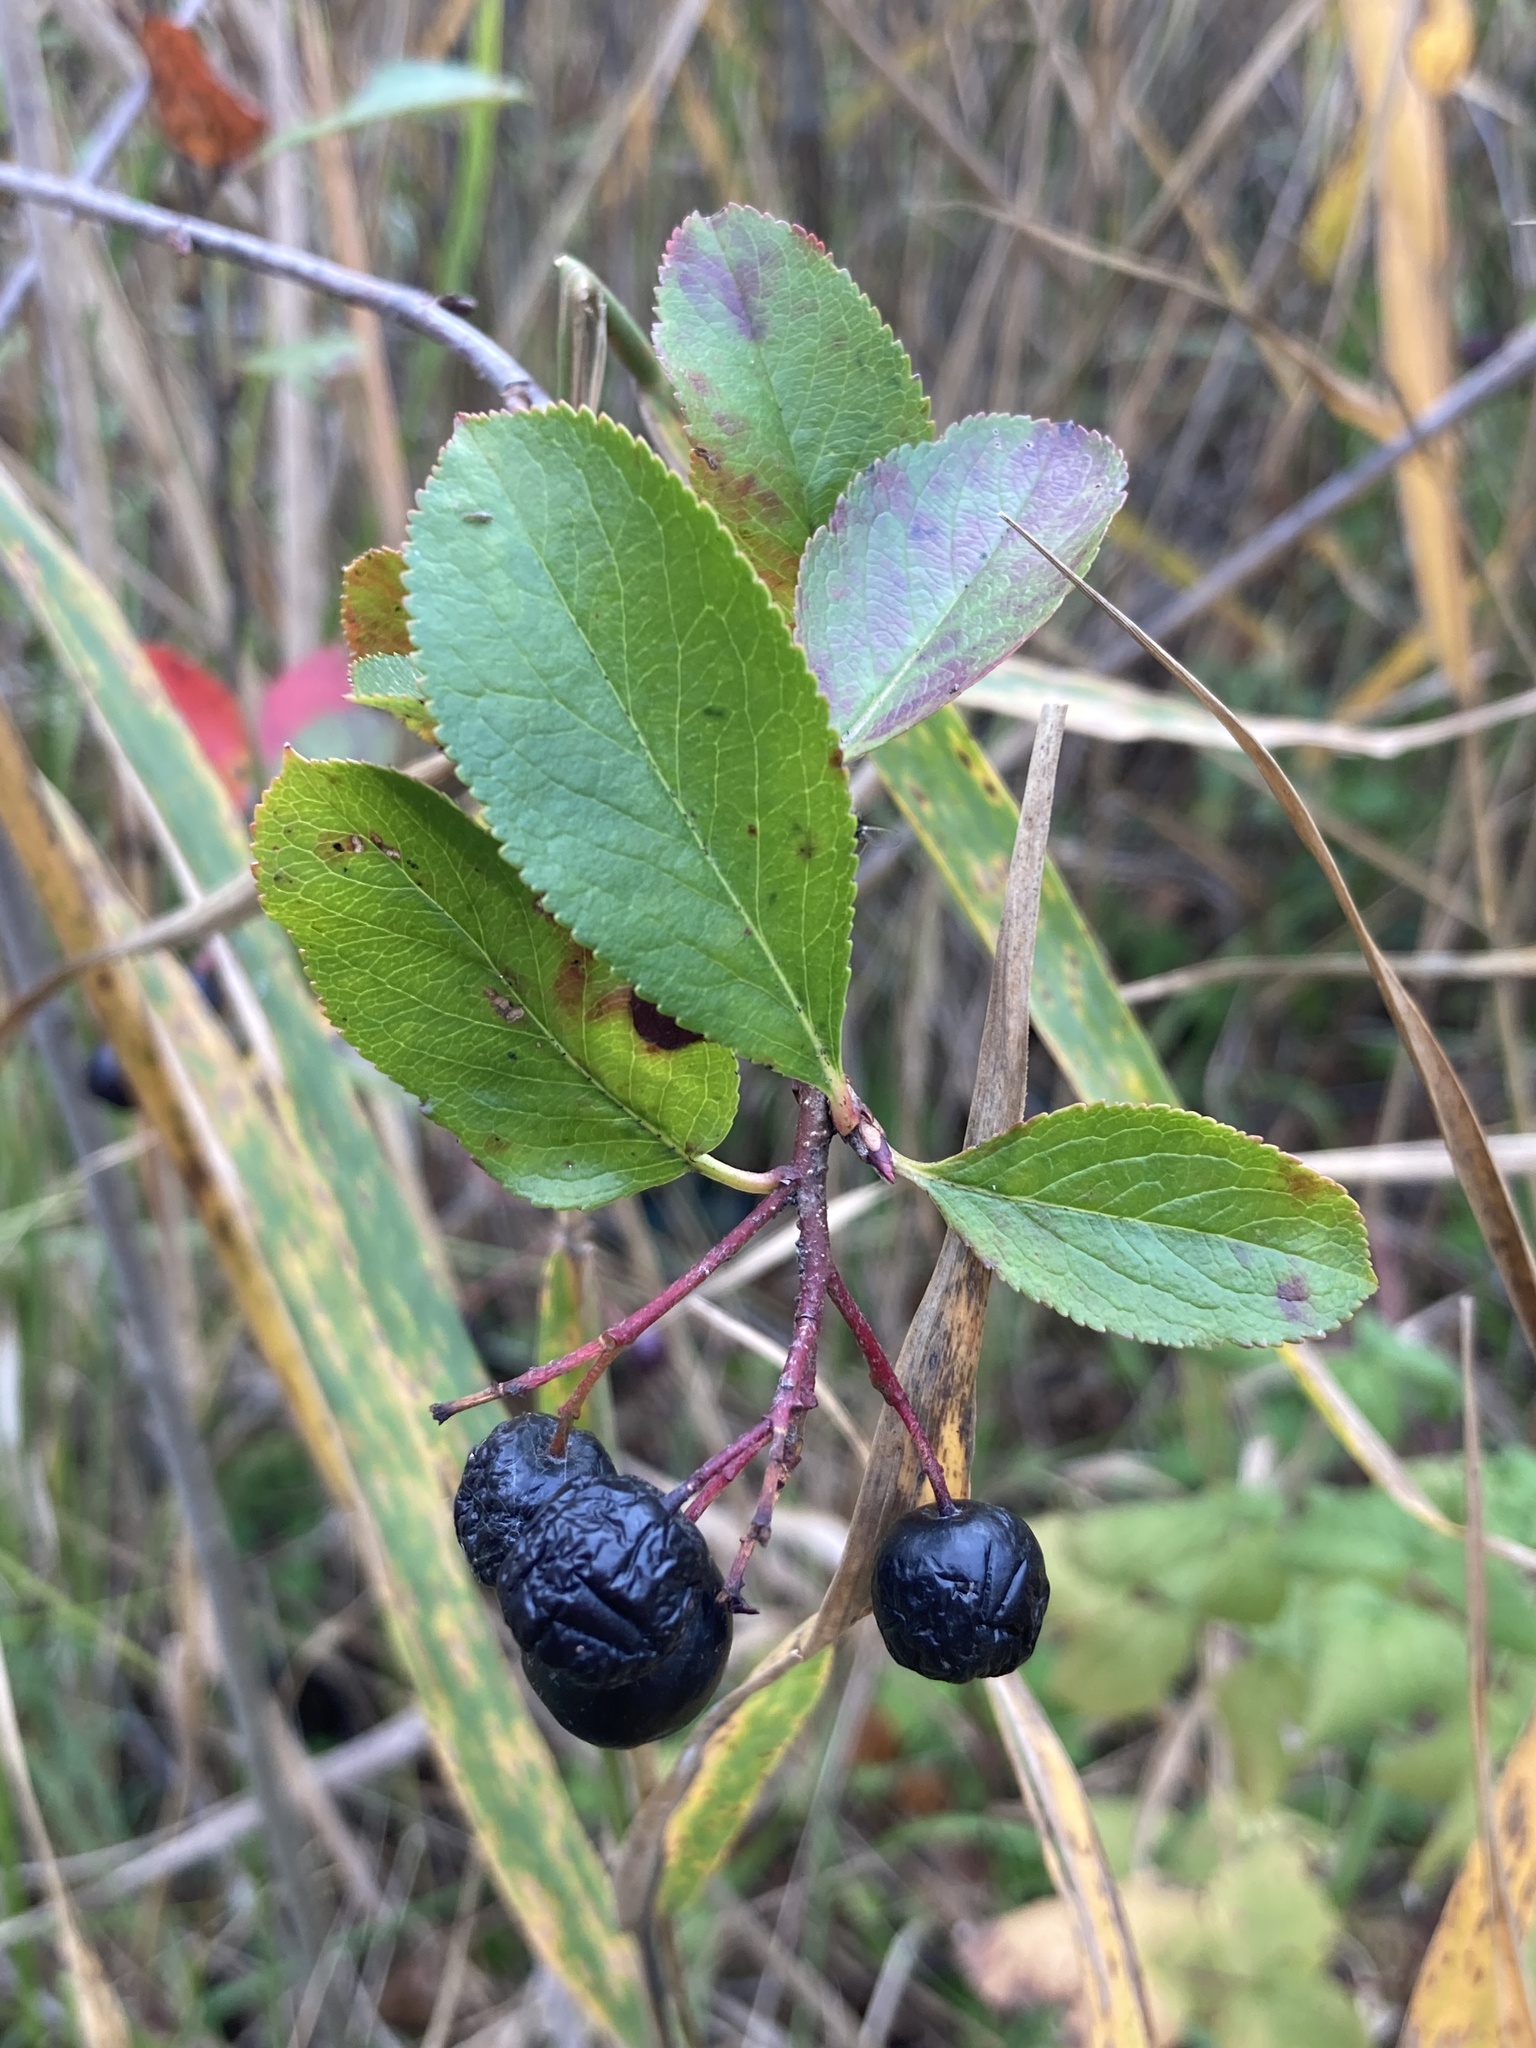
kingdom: Plantae
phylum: Tracheophyta
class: Magnoliopsida
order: Rosales
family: Rosaceae
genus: Sorbaronia
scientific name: Sorbaronia arsenii
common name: Arsène's mountain-ash
